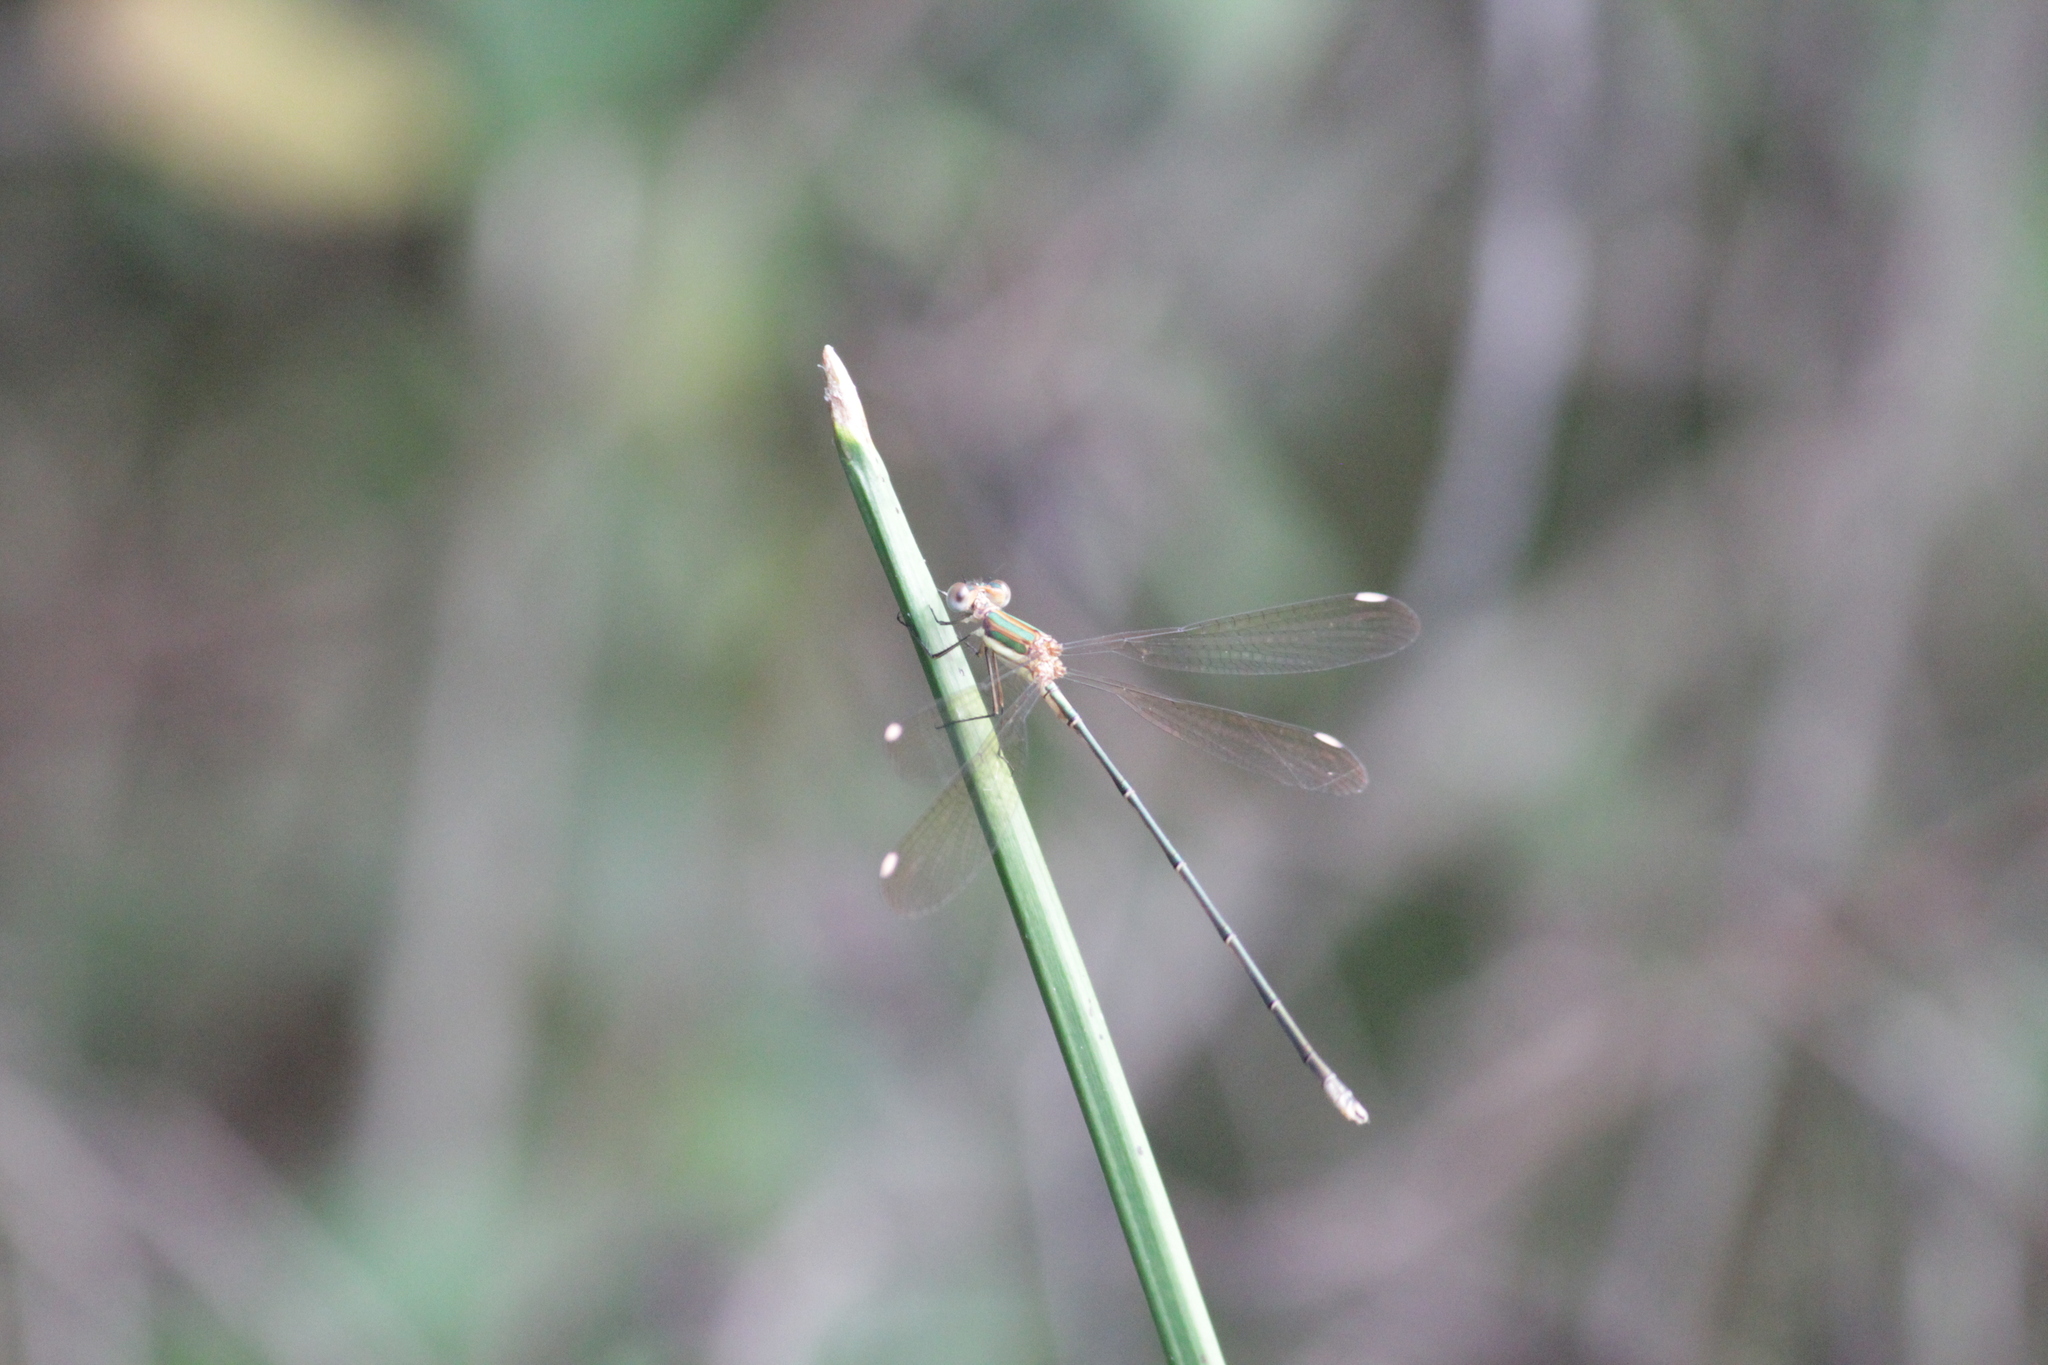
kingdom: Animalia
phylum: Arthropoda
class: Insecta
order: Odonata
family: Lestidae
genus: Lestes
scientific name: Lestes virgatus
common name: Smoky spreadwing
